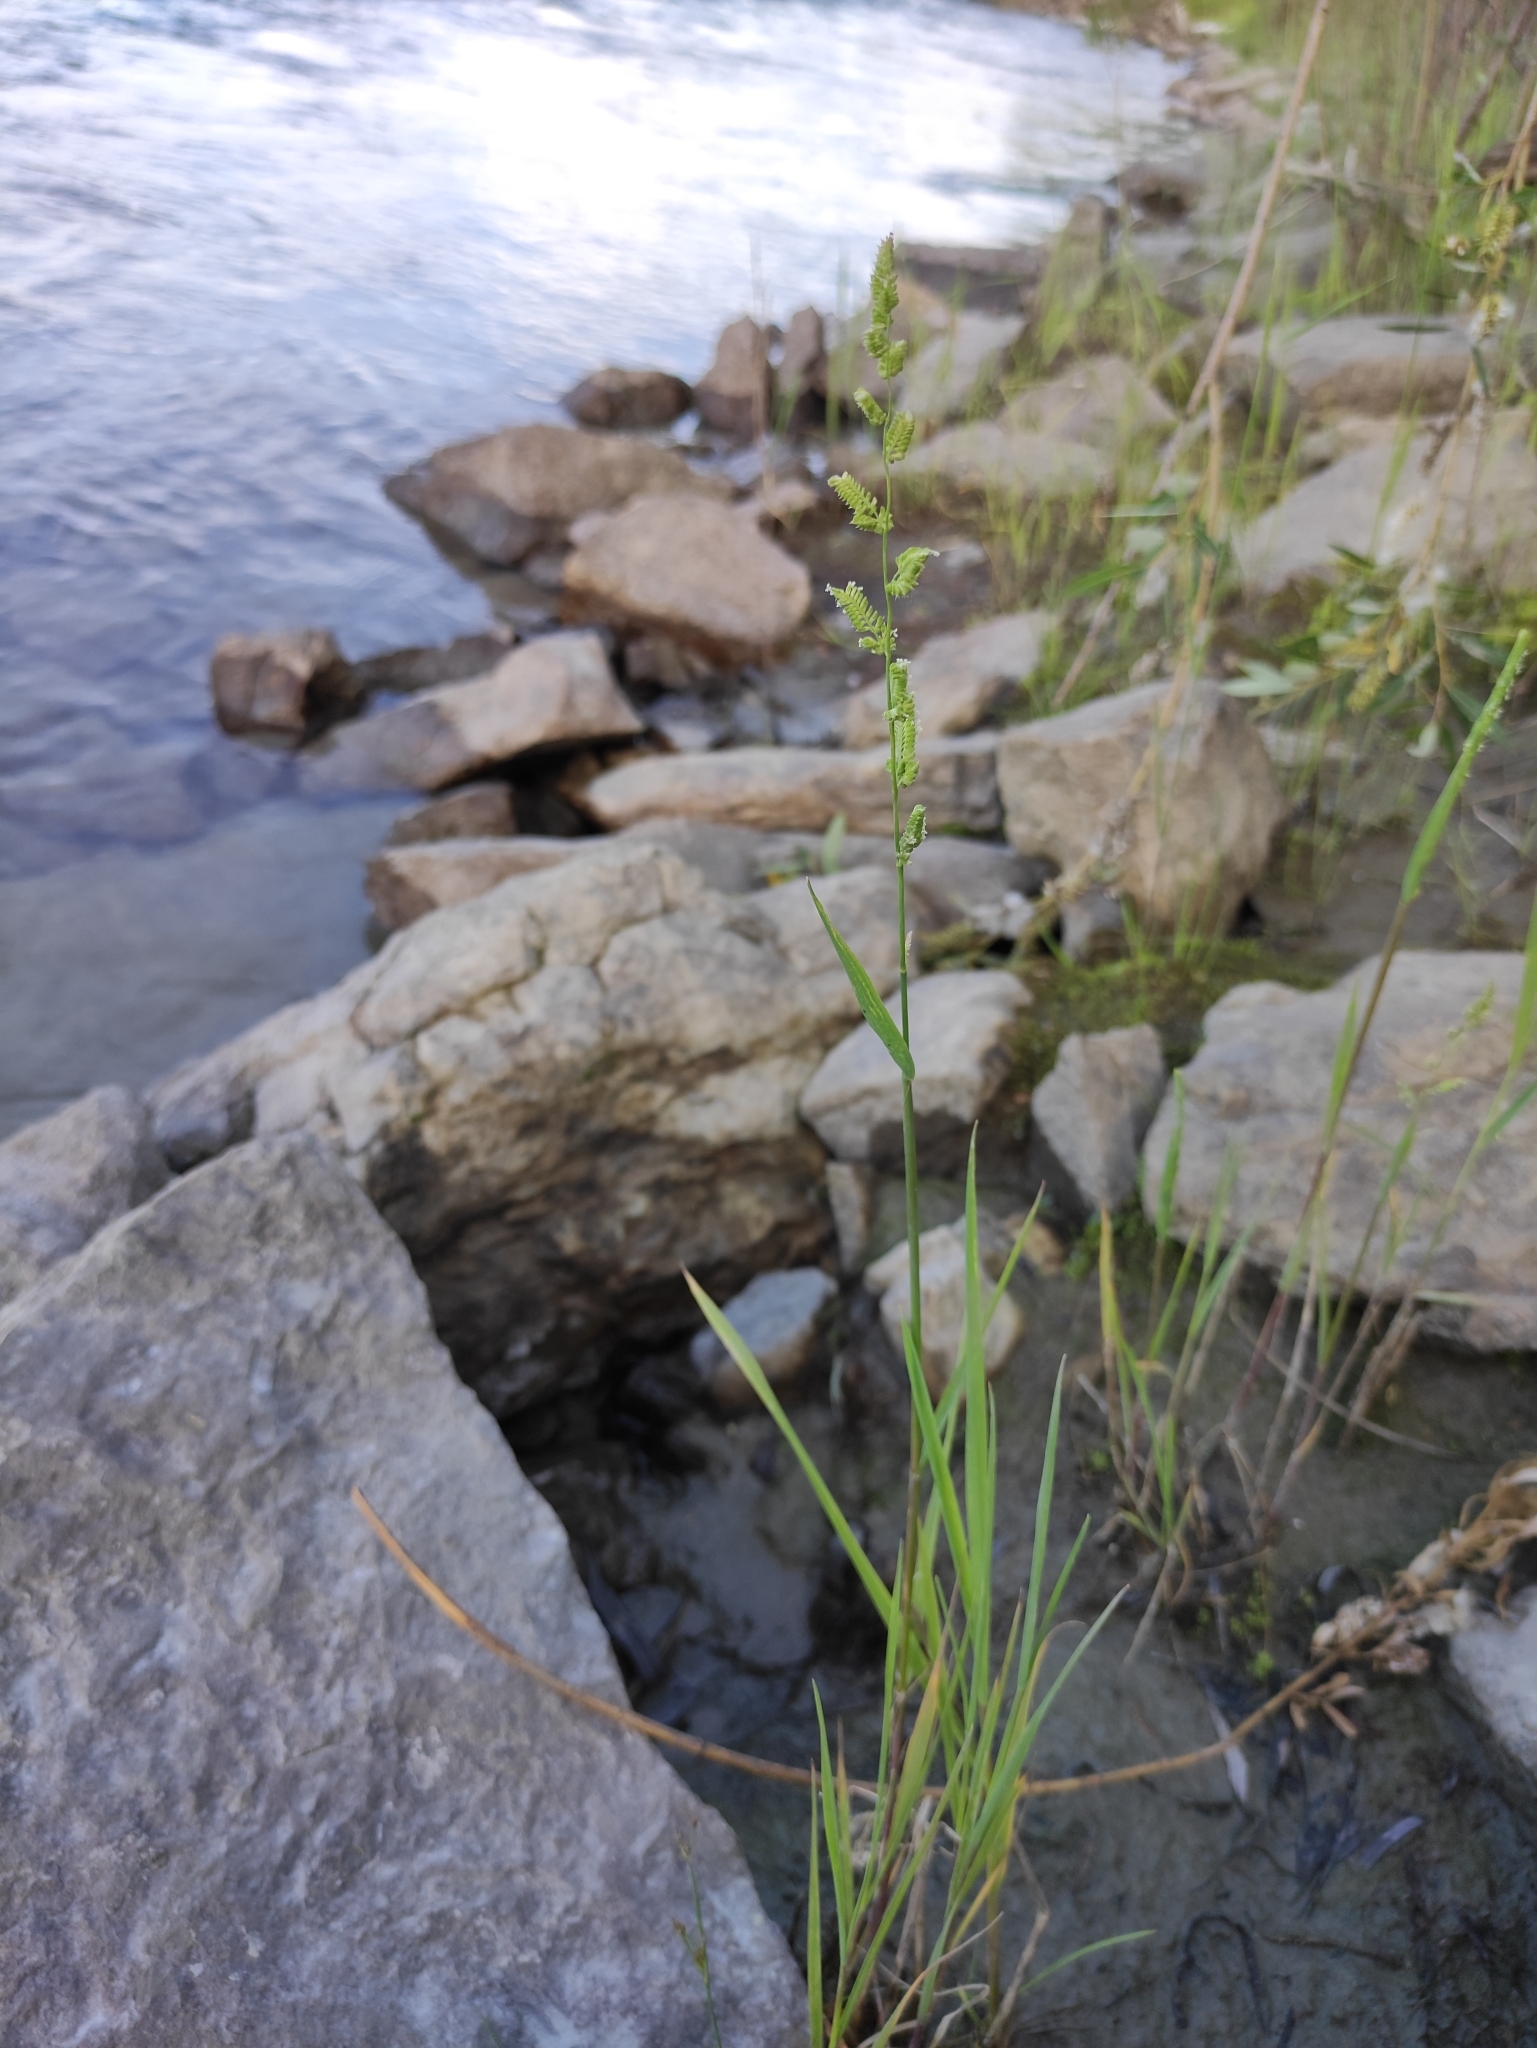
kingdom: Plantae
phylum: Tracheophyta
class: Liliopsida
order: Poales
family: Poaceae
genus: Beckmannia
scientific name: Beckmannia syzigachne
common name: American slough-grass
